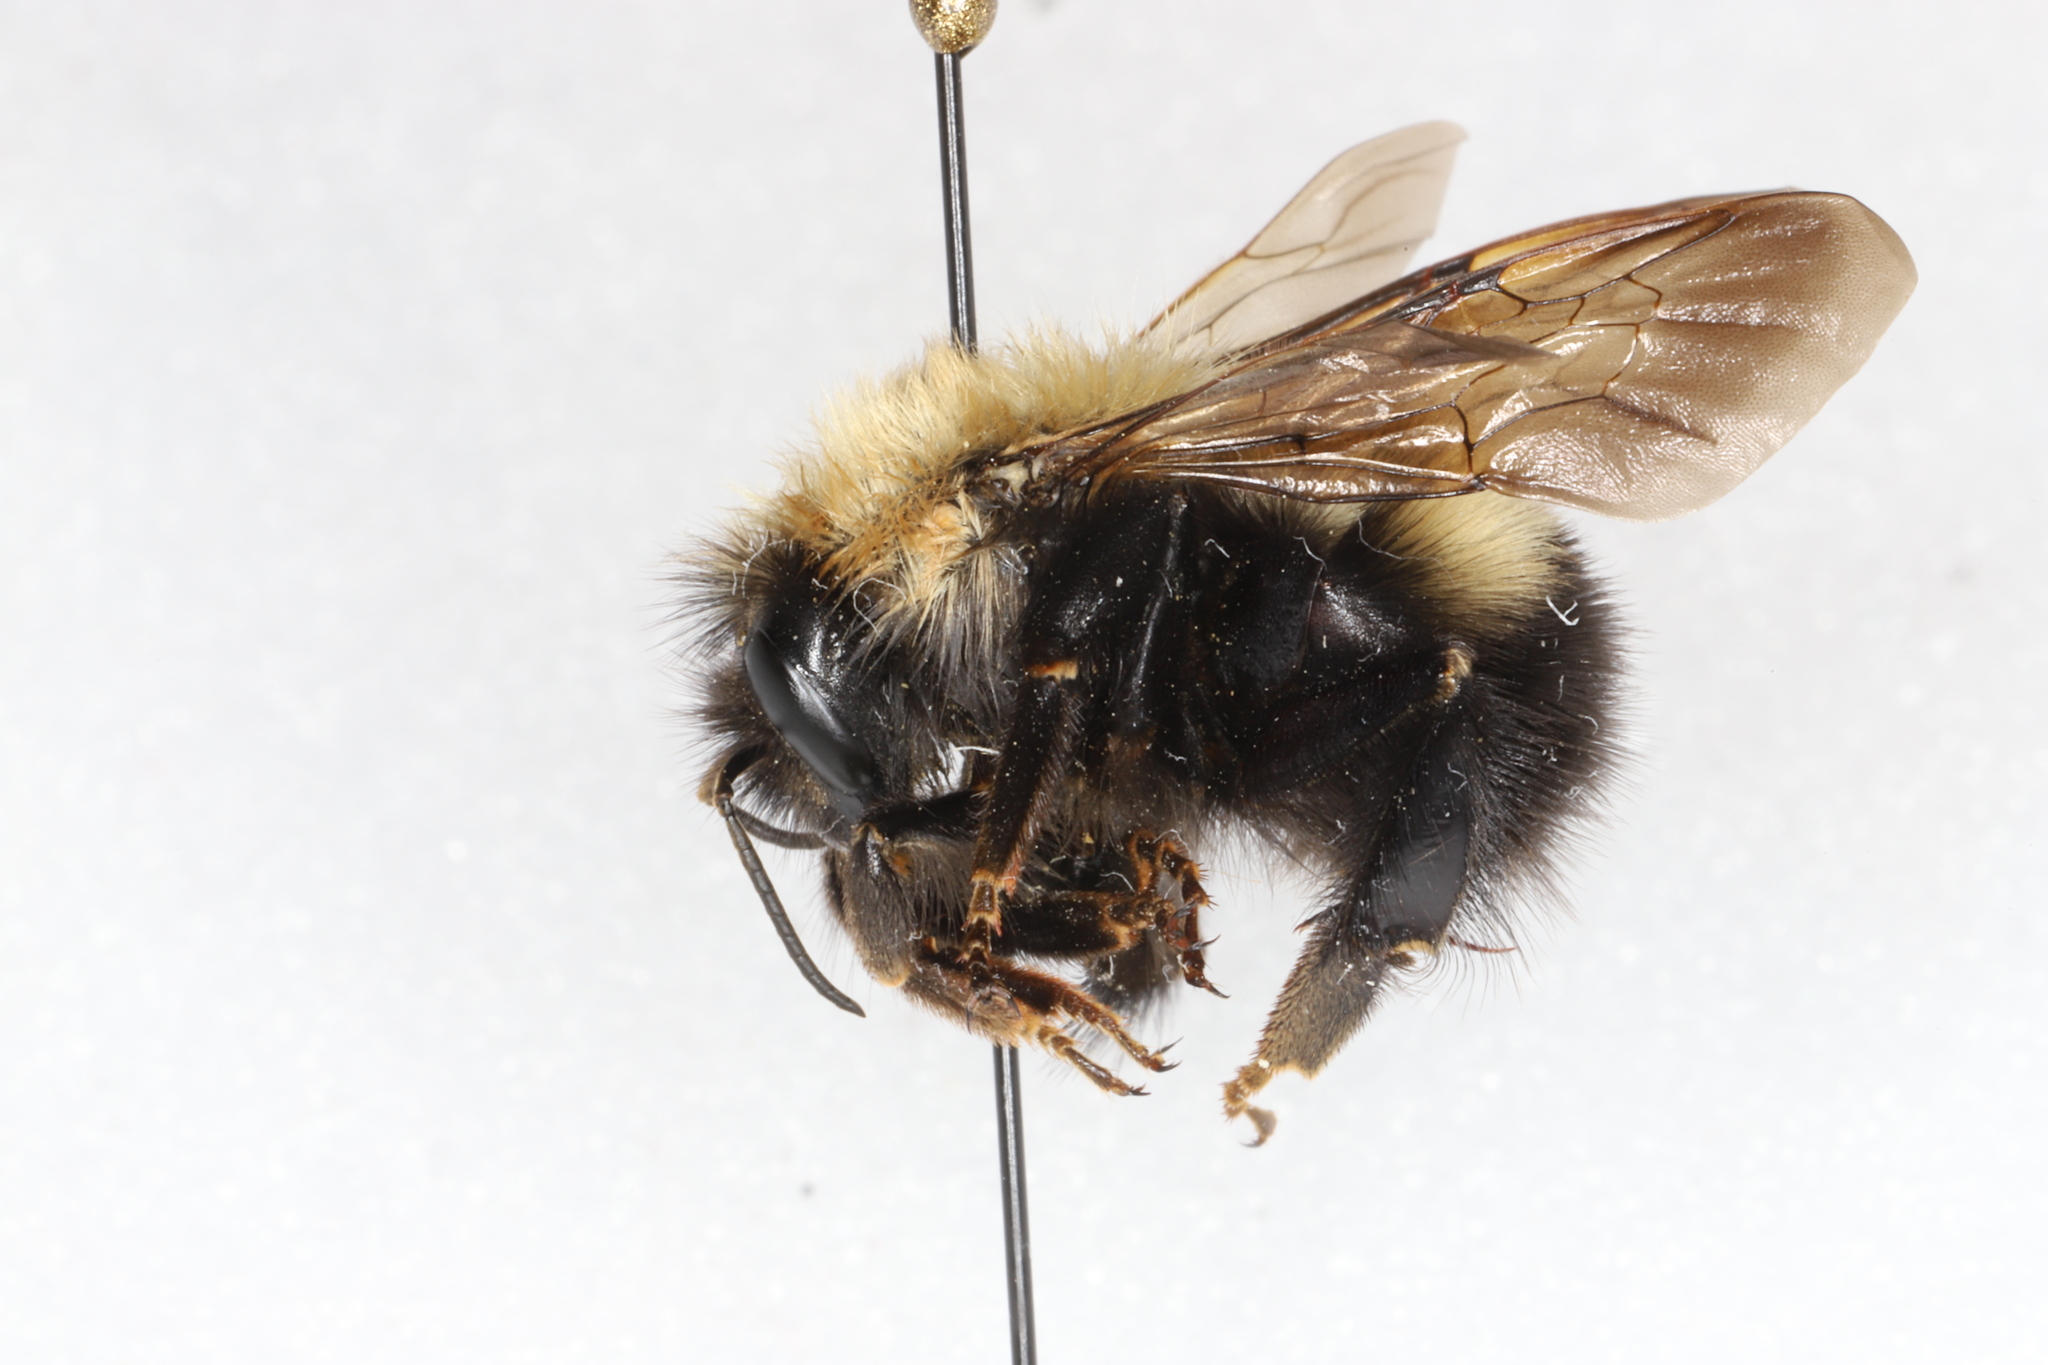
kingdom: Animalia
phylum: Arthropoda
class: Insecta
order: Hymenoptera
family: Apidae
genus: Bombus
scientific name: Bombus perplexus
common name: Confusing bumble bee
